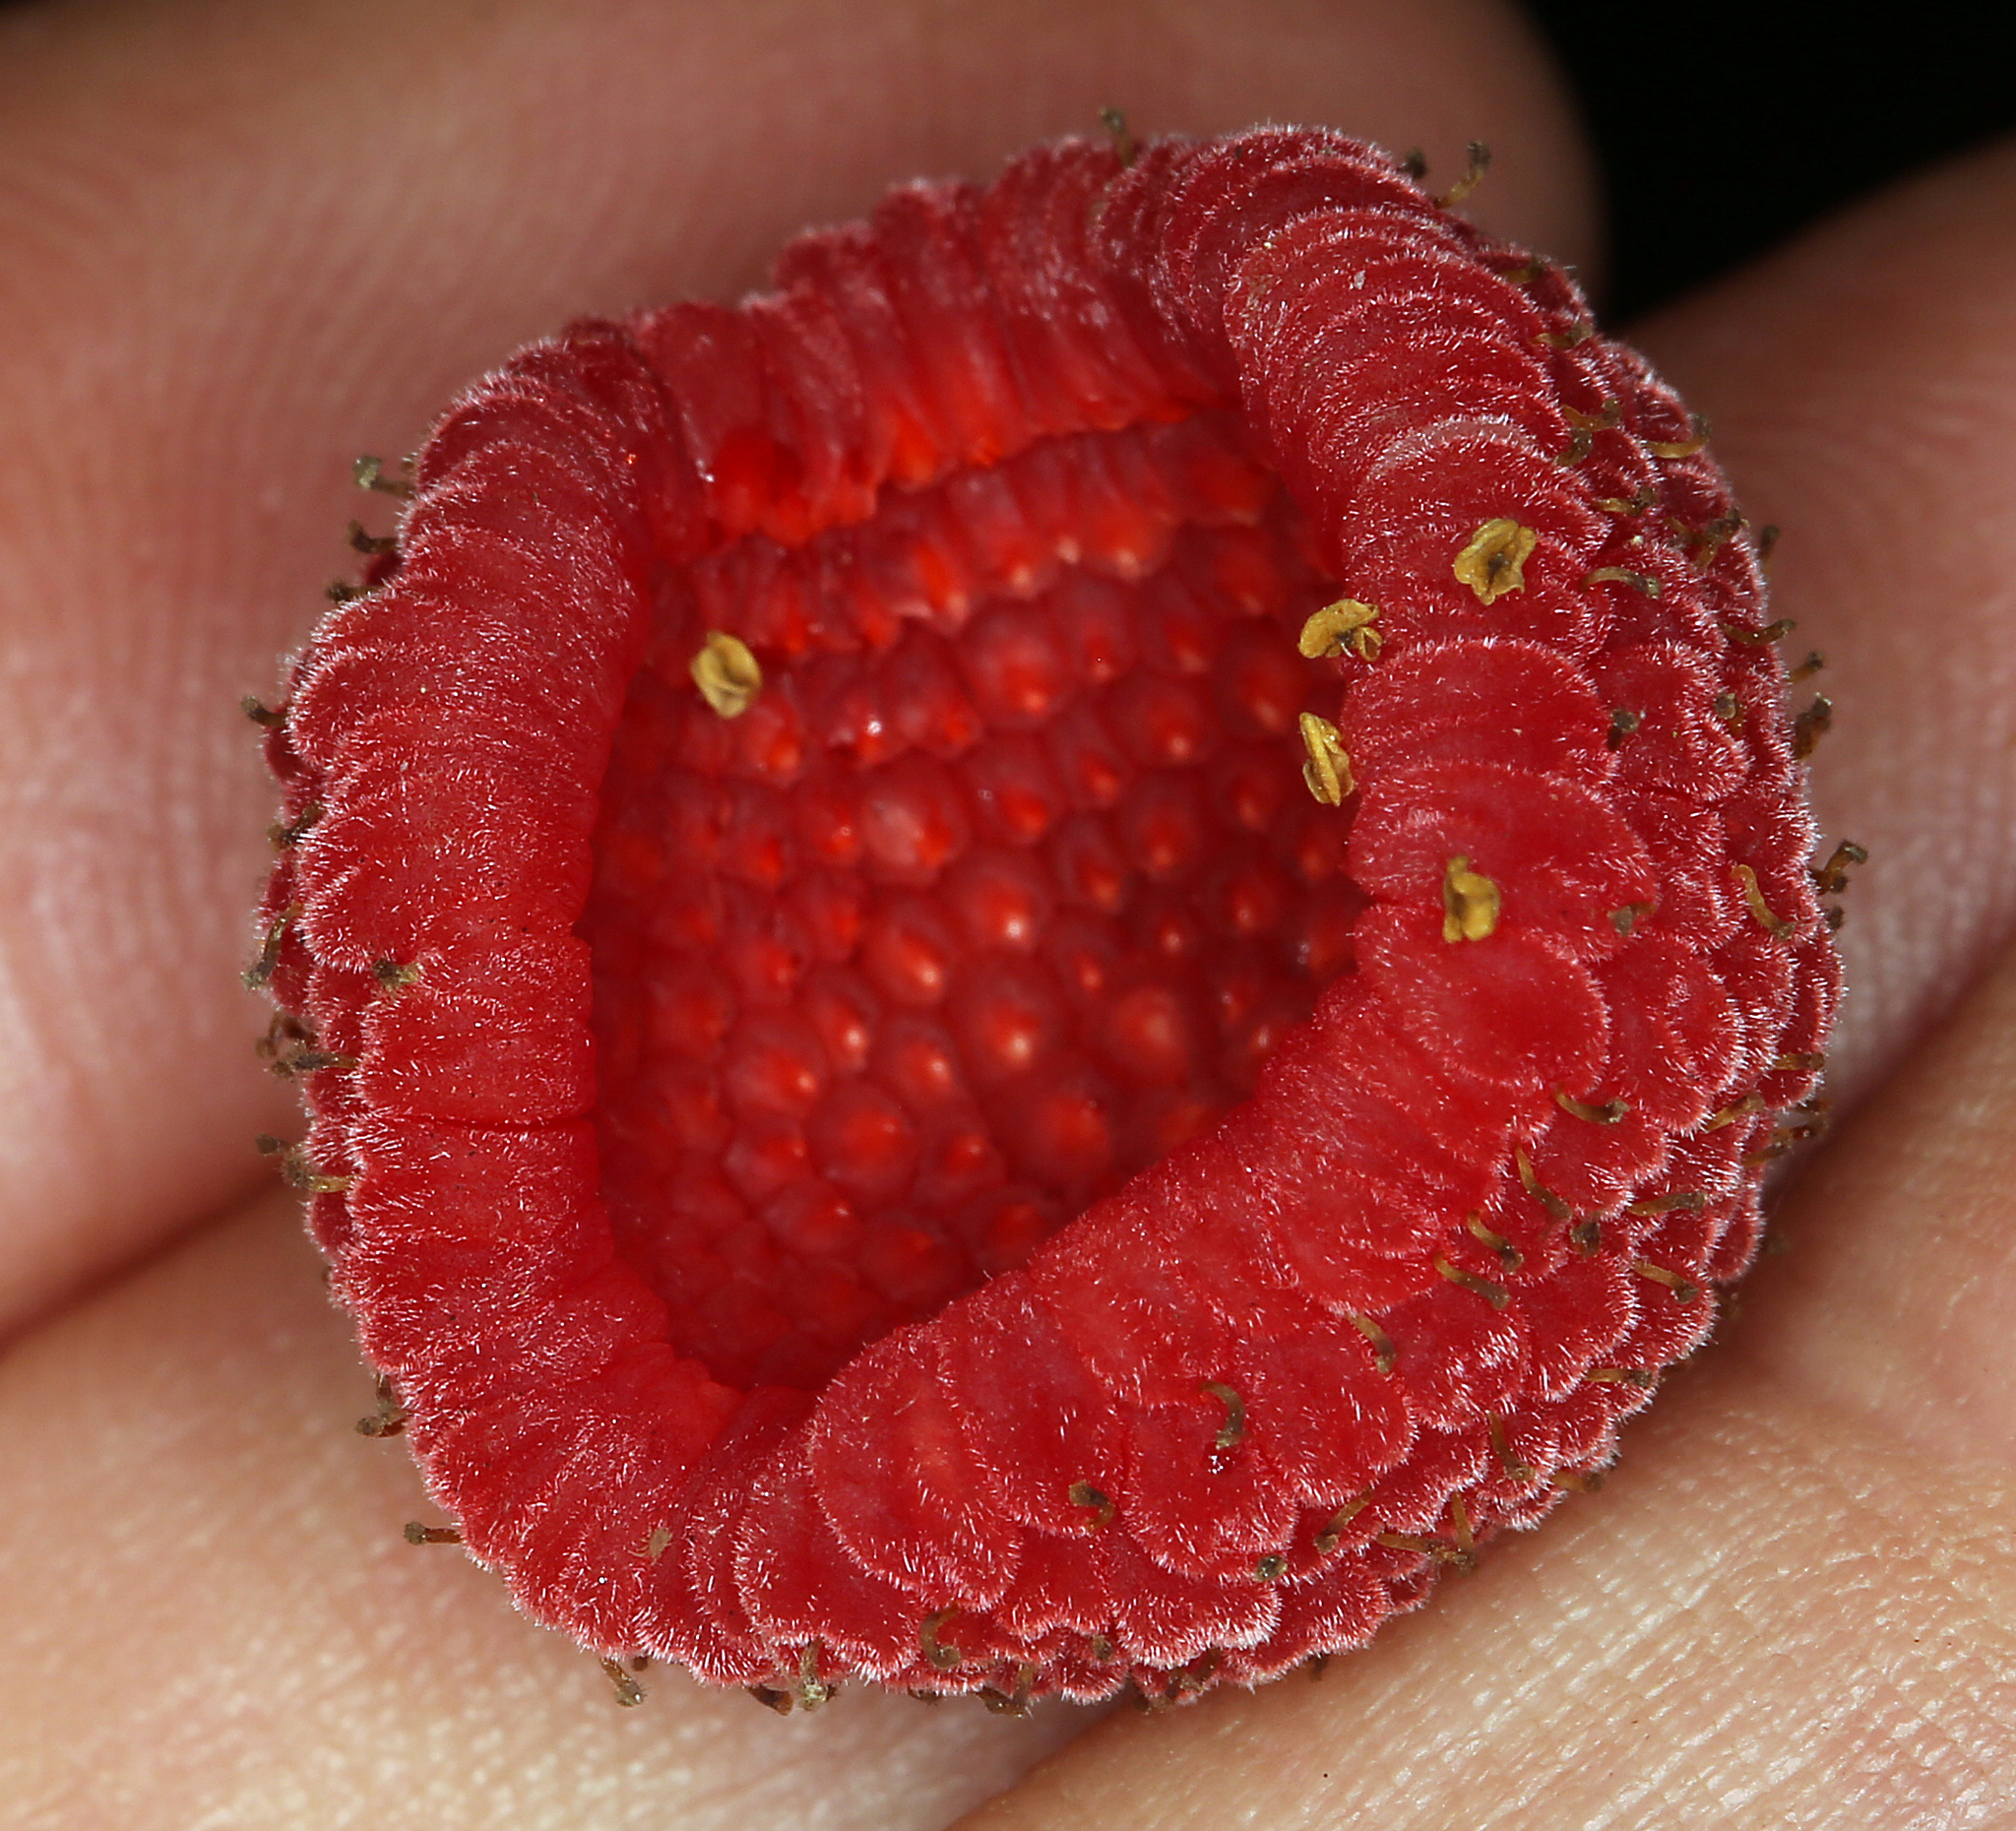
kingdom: Plantae
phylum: Tracheophyta
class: Magnoliopsida
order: Rosales
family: Rosaceae
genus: Rubus
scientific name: Rubus parviflorus
